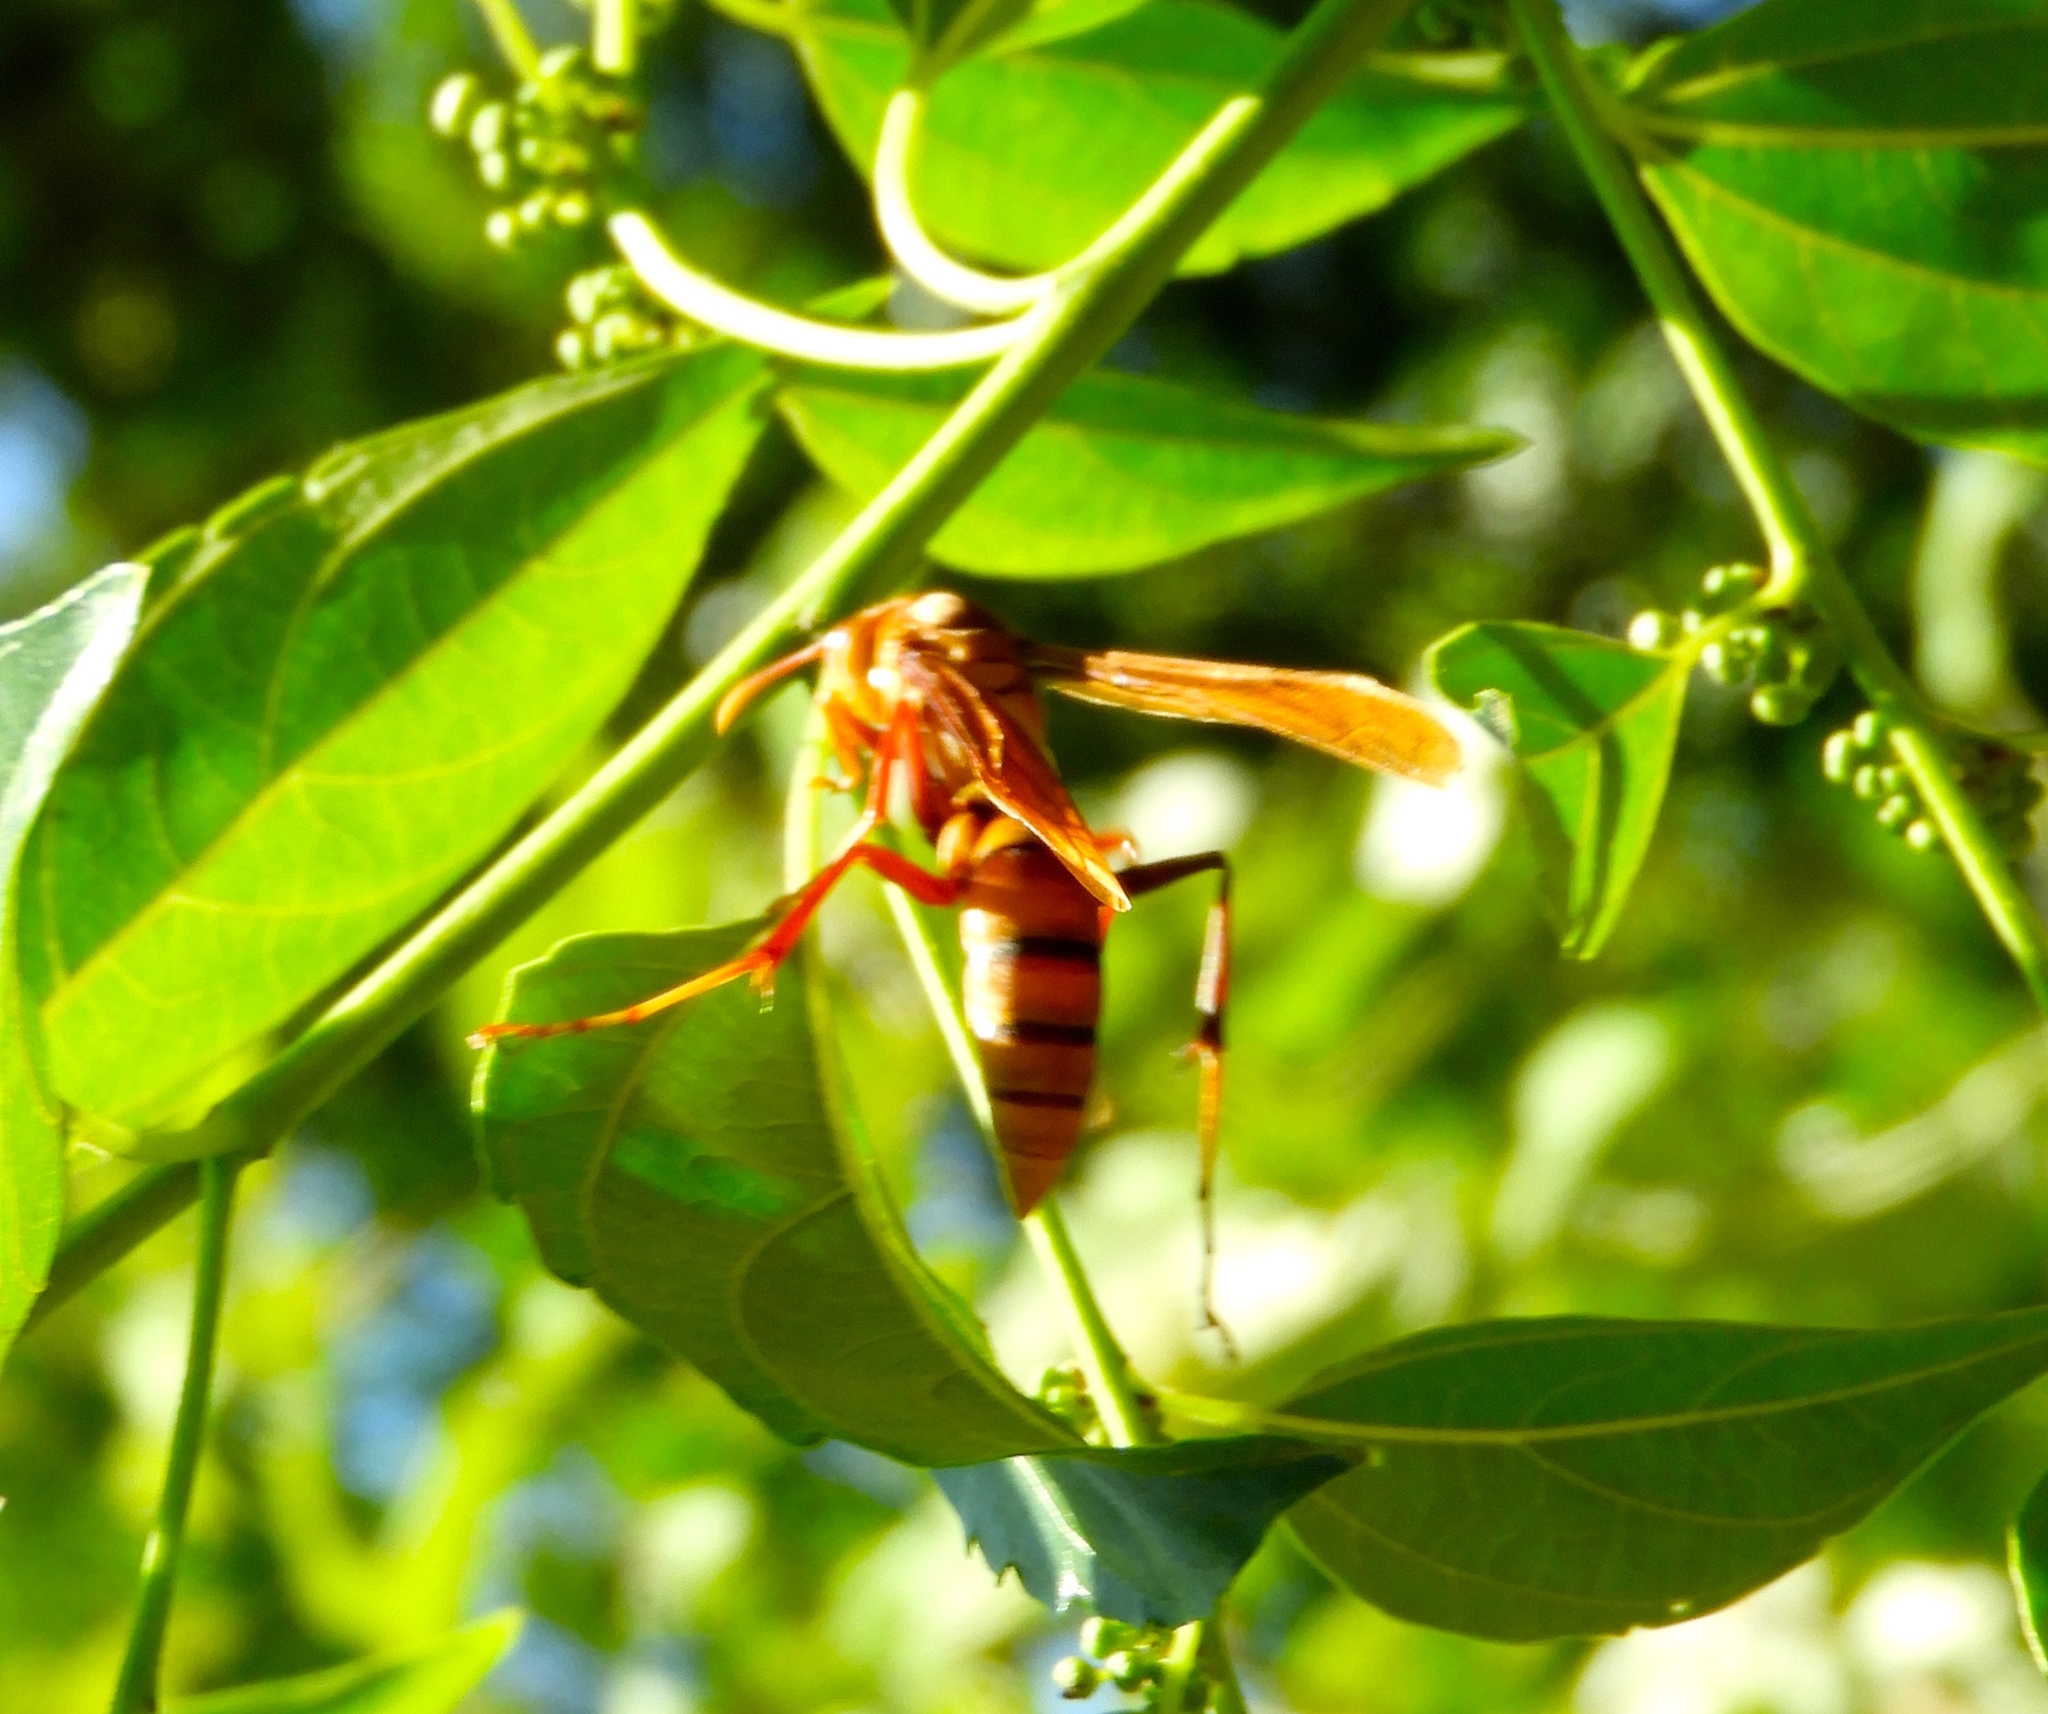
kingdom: Animalia
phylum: Arthropoda
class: Insecta
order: Hymenoptera
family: Eumenidae
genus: Polistes
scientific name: Polistes
